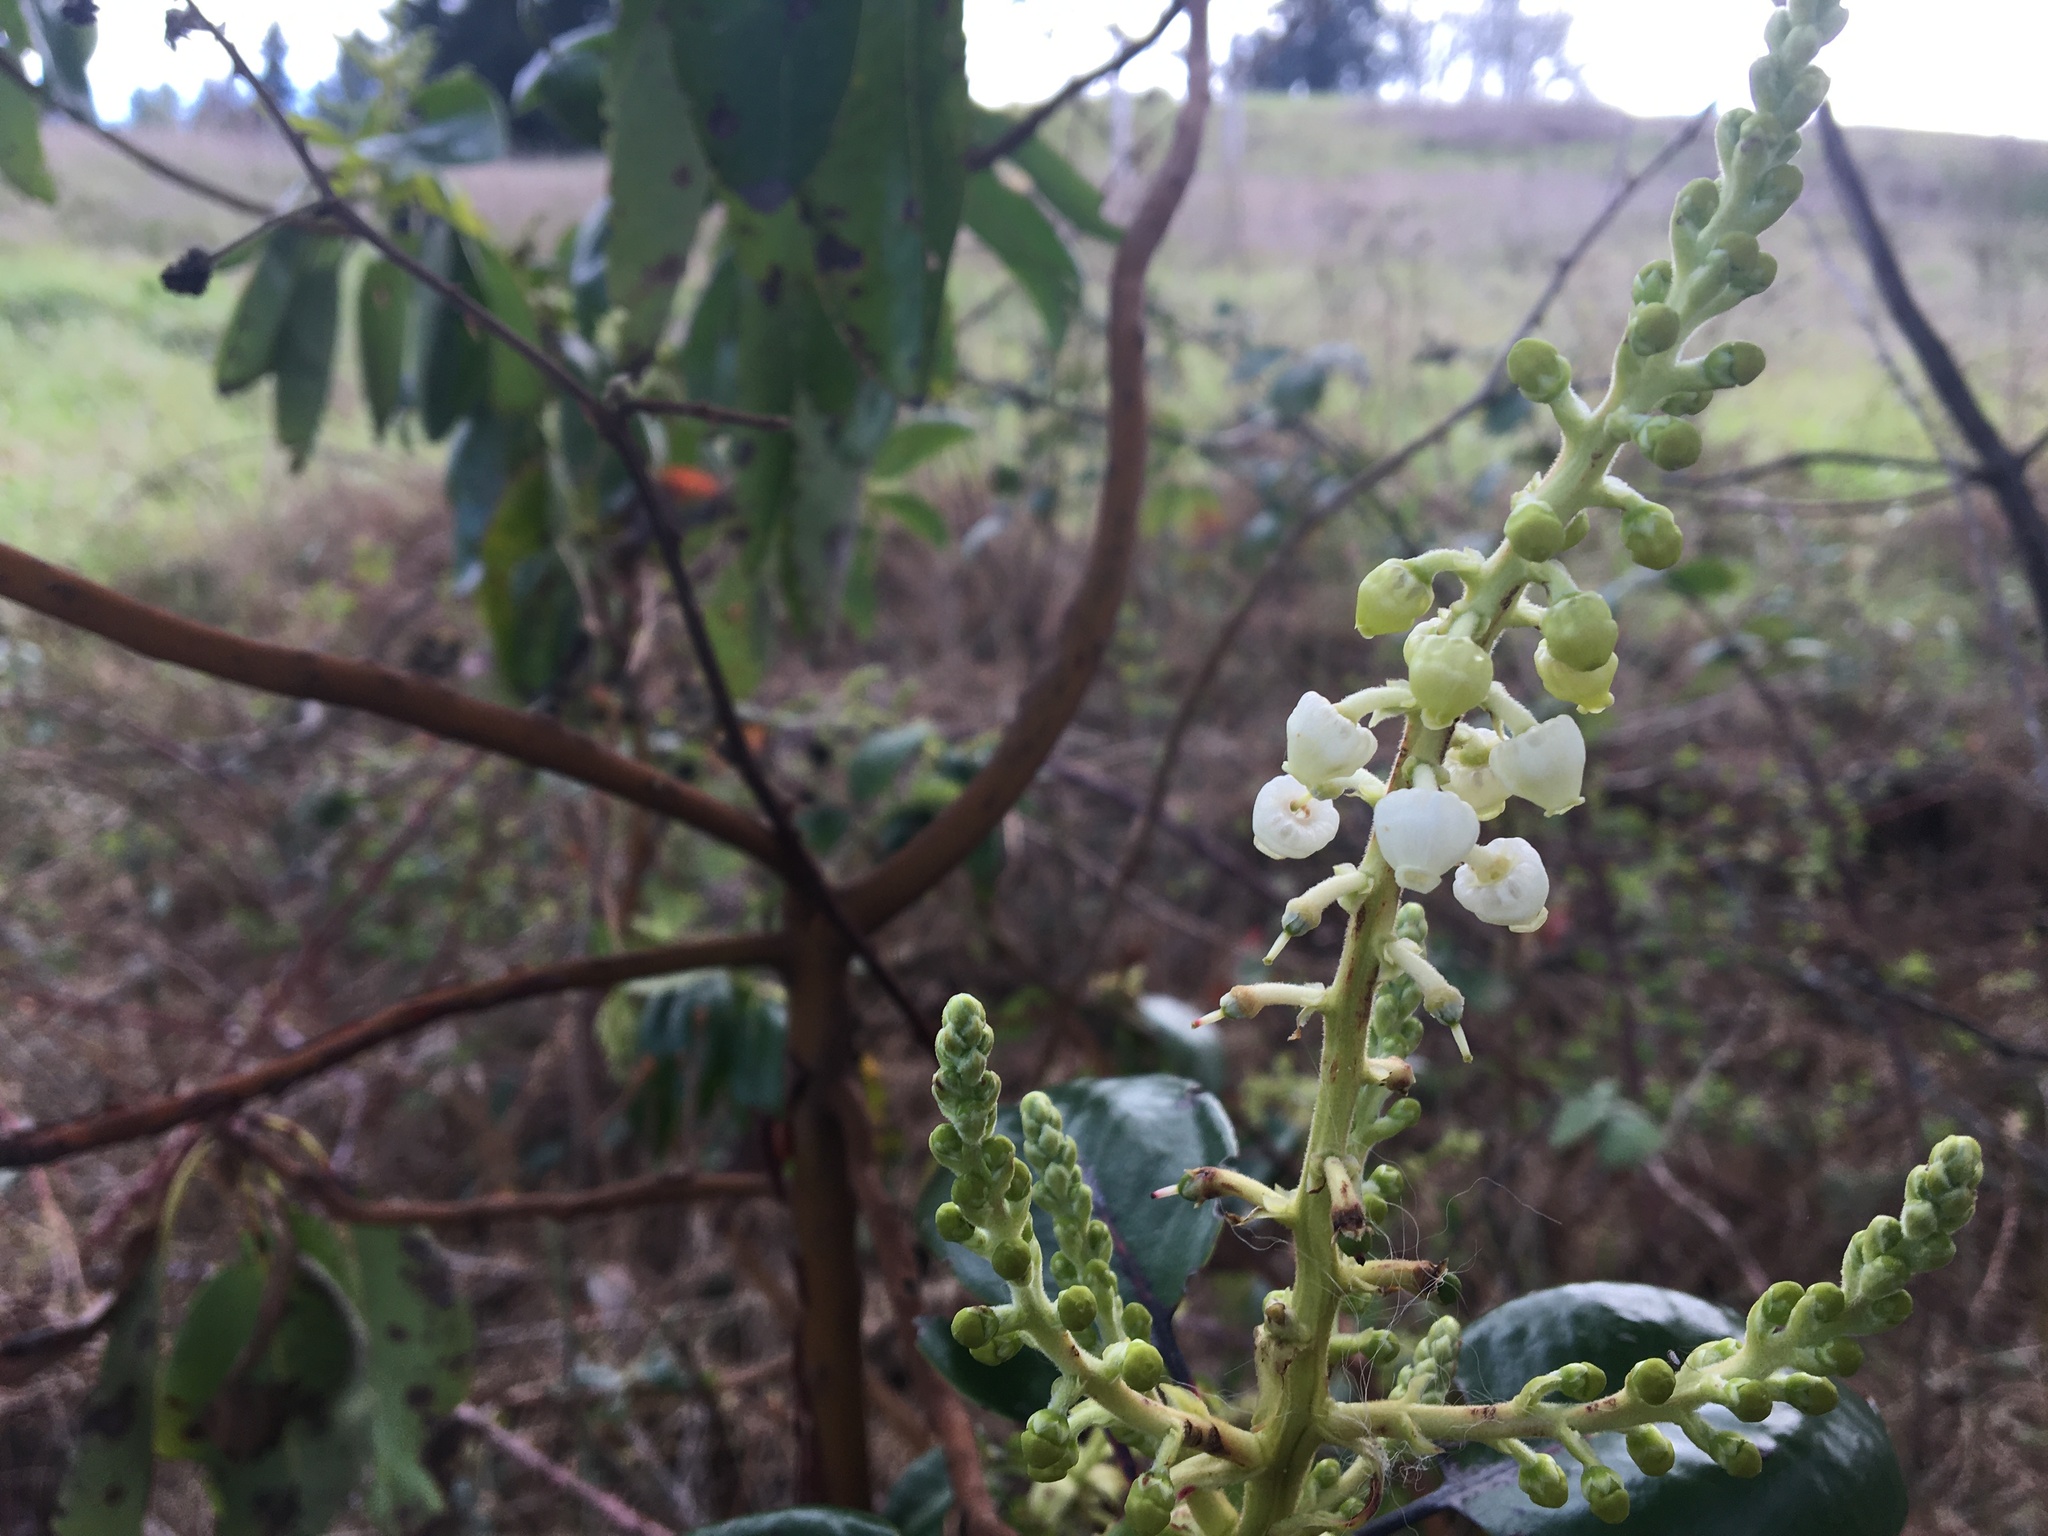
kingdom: Plantae
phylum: Tracheophyta
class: Magnoliopsida
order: Ericales
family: Ericaceae
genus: Arbutus
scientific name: Arbutus menziesii
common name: Pacific madrone
